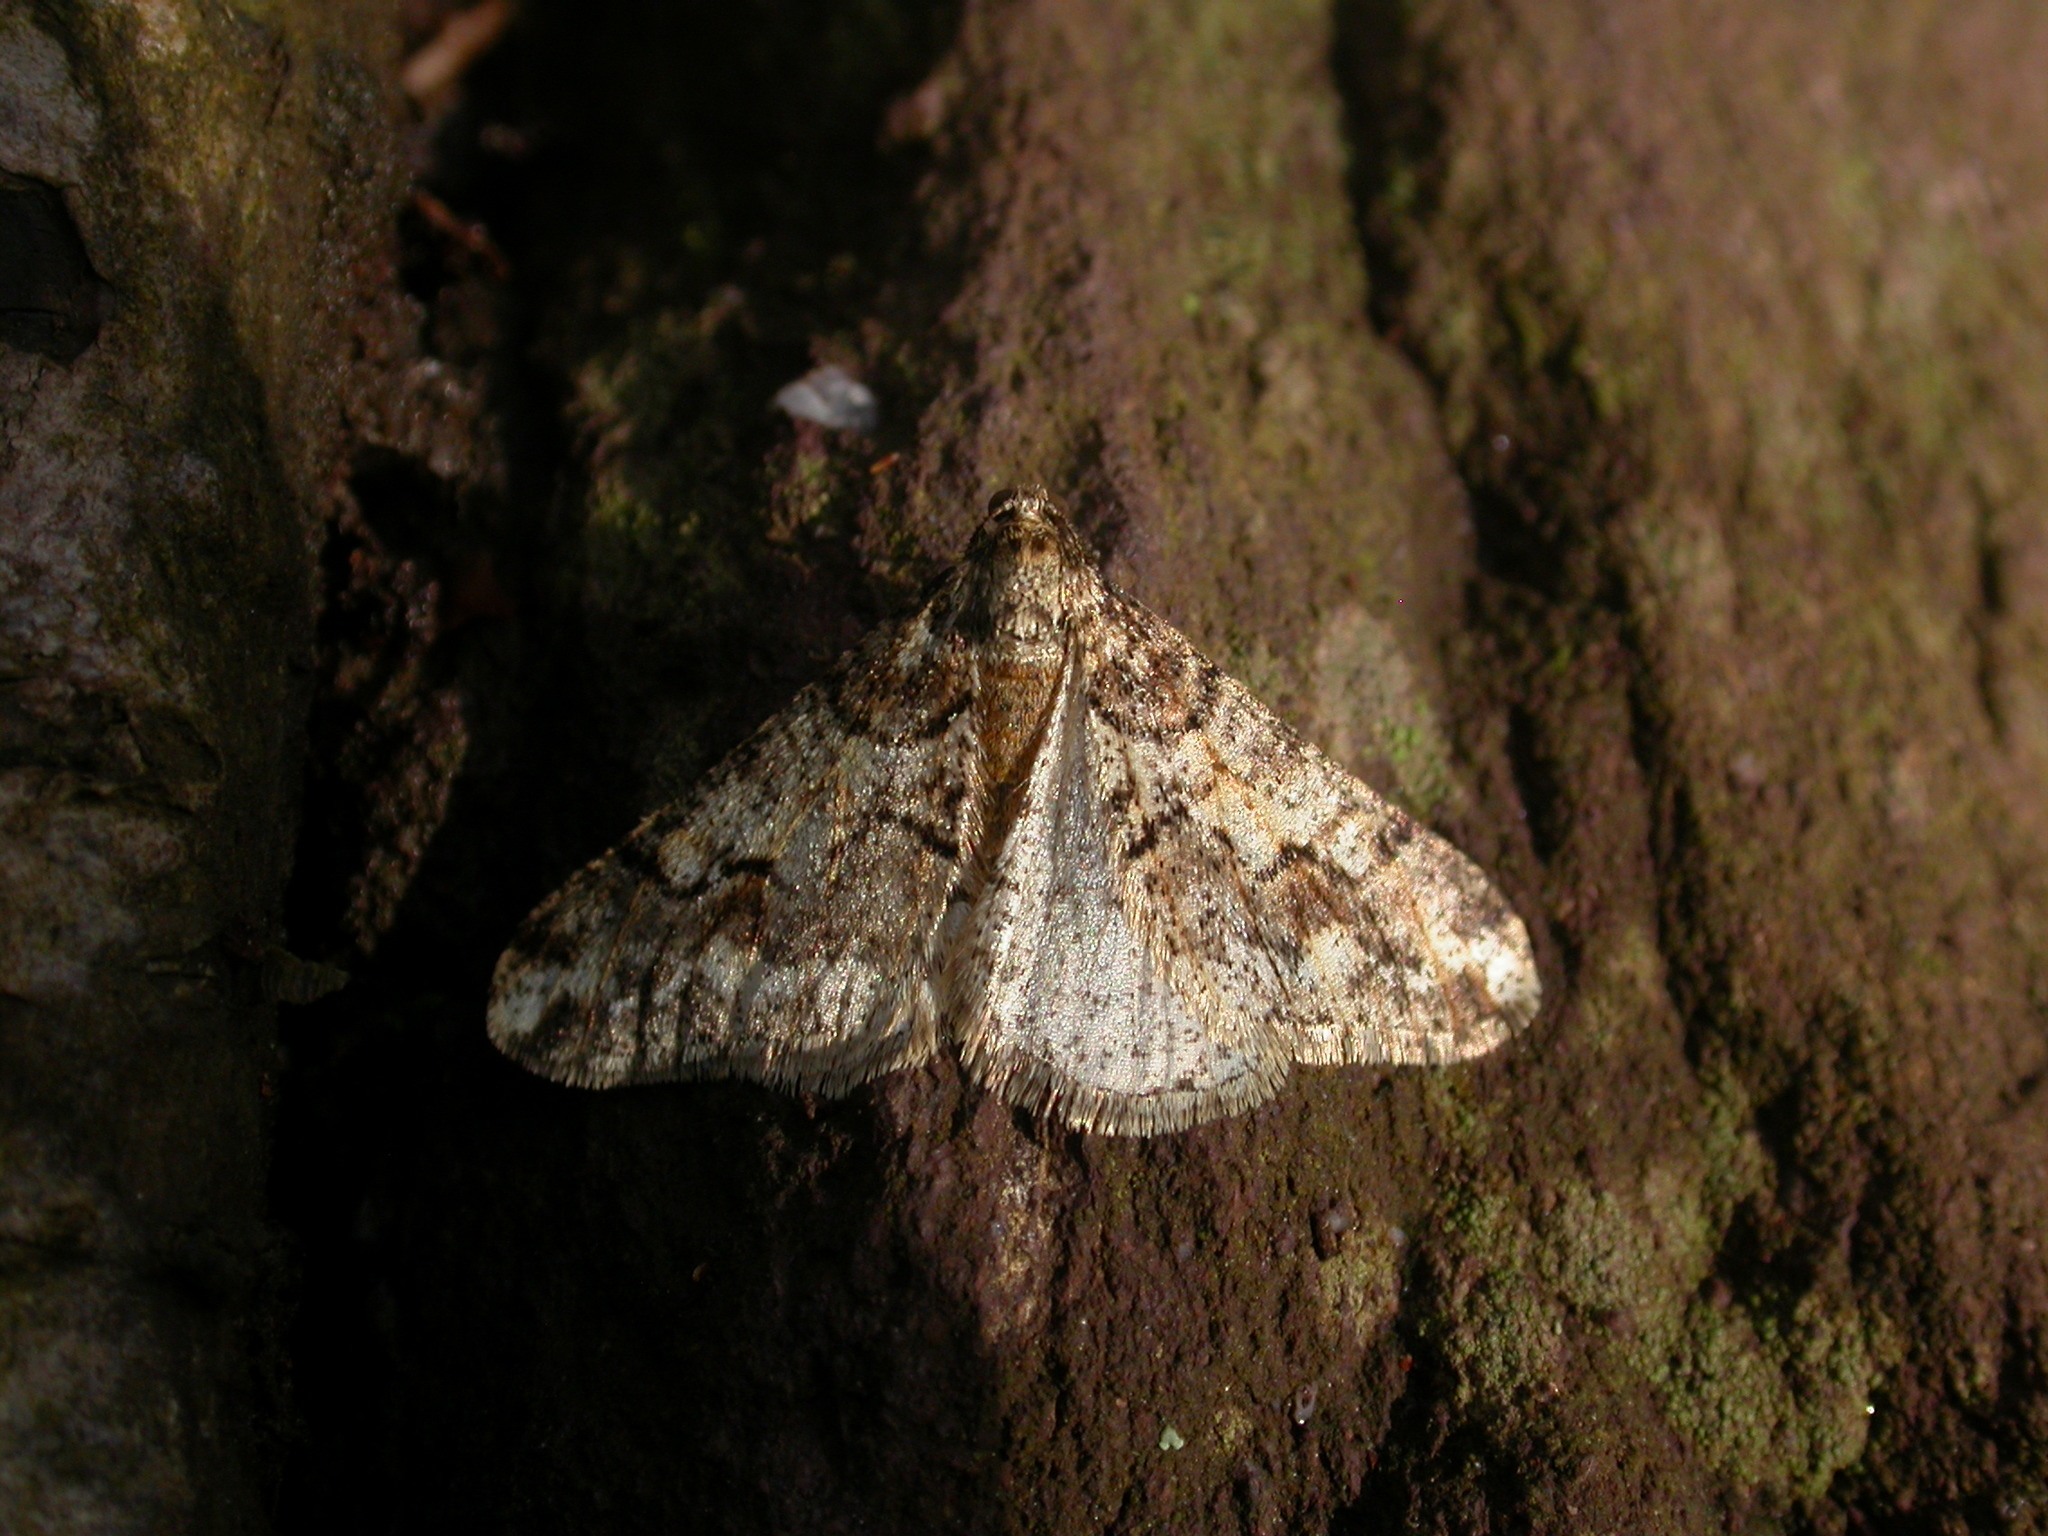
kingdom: Animalia
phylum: Arthropoda
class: Insecta
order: Lepidoptera
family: Geometridae
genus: Agriopis
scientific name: Agriopis leucophaearia
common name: Spring usher
